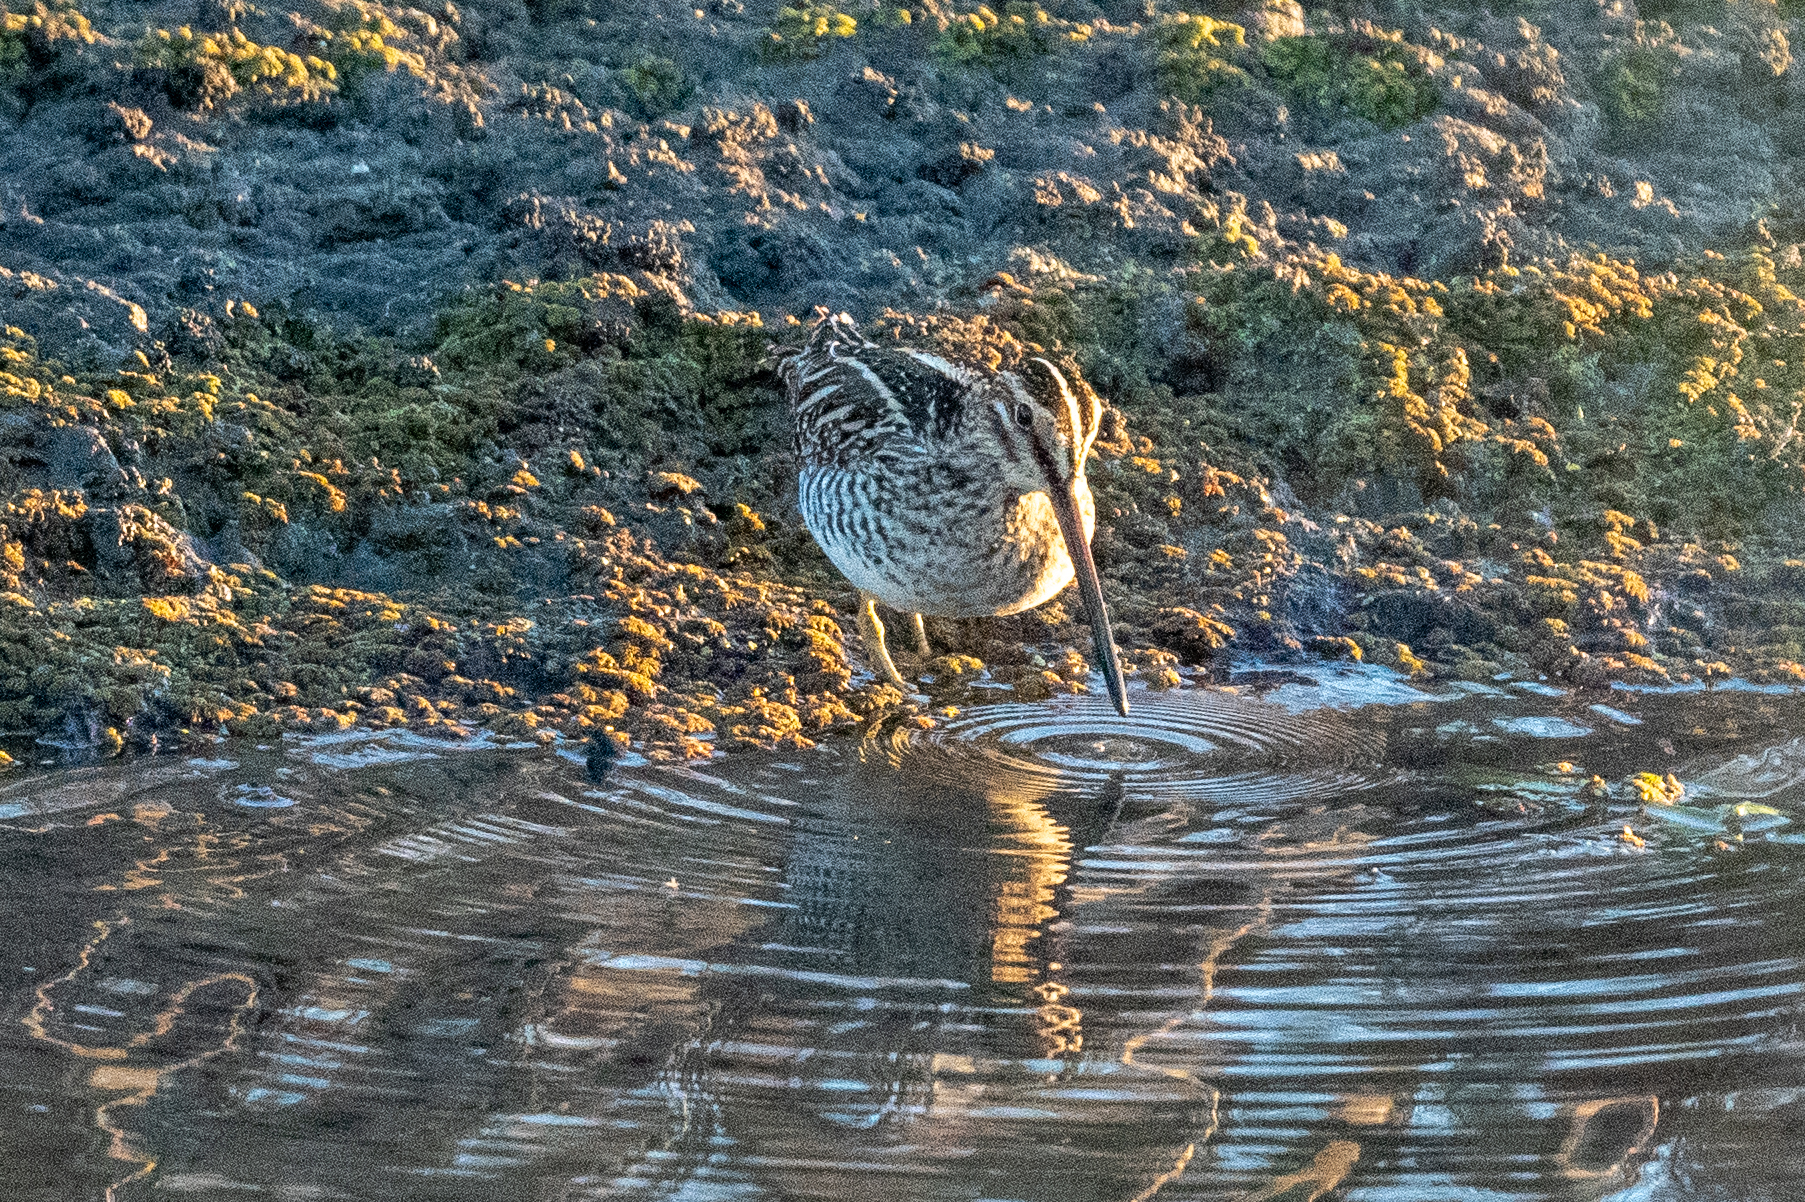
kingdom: Animalia
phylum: Chordata
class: Aves
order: Charadriiformes
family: Scolopacidae
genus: Gallinago
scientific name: Gallinago delicata
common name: Wilson's snipe
